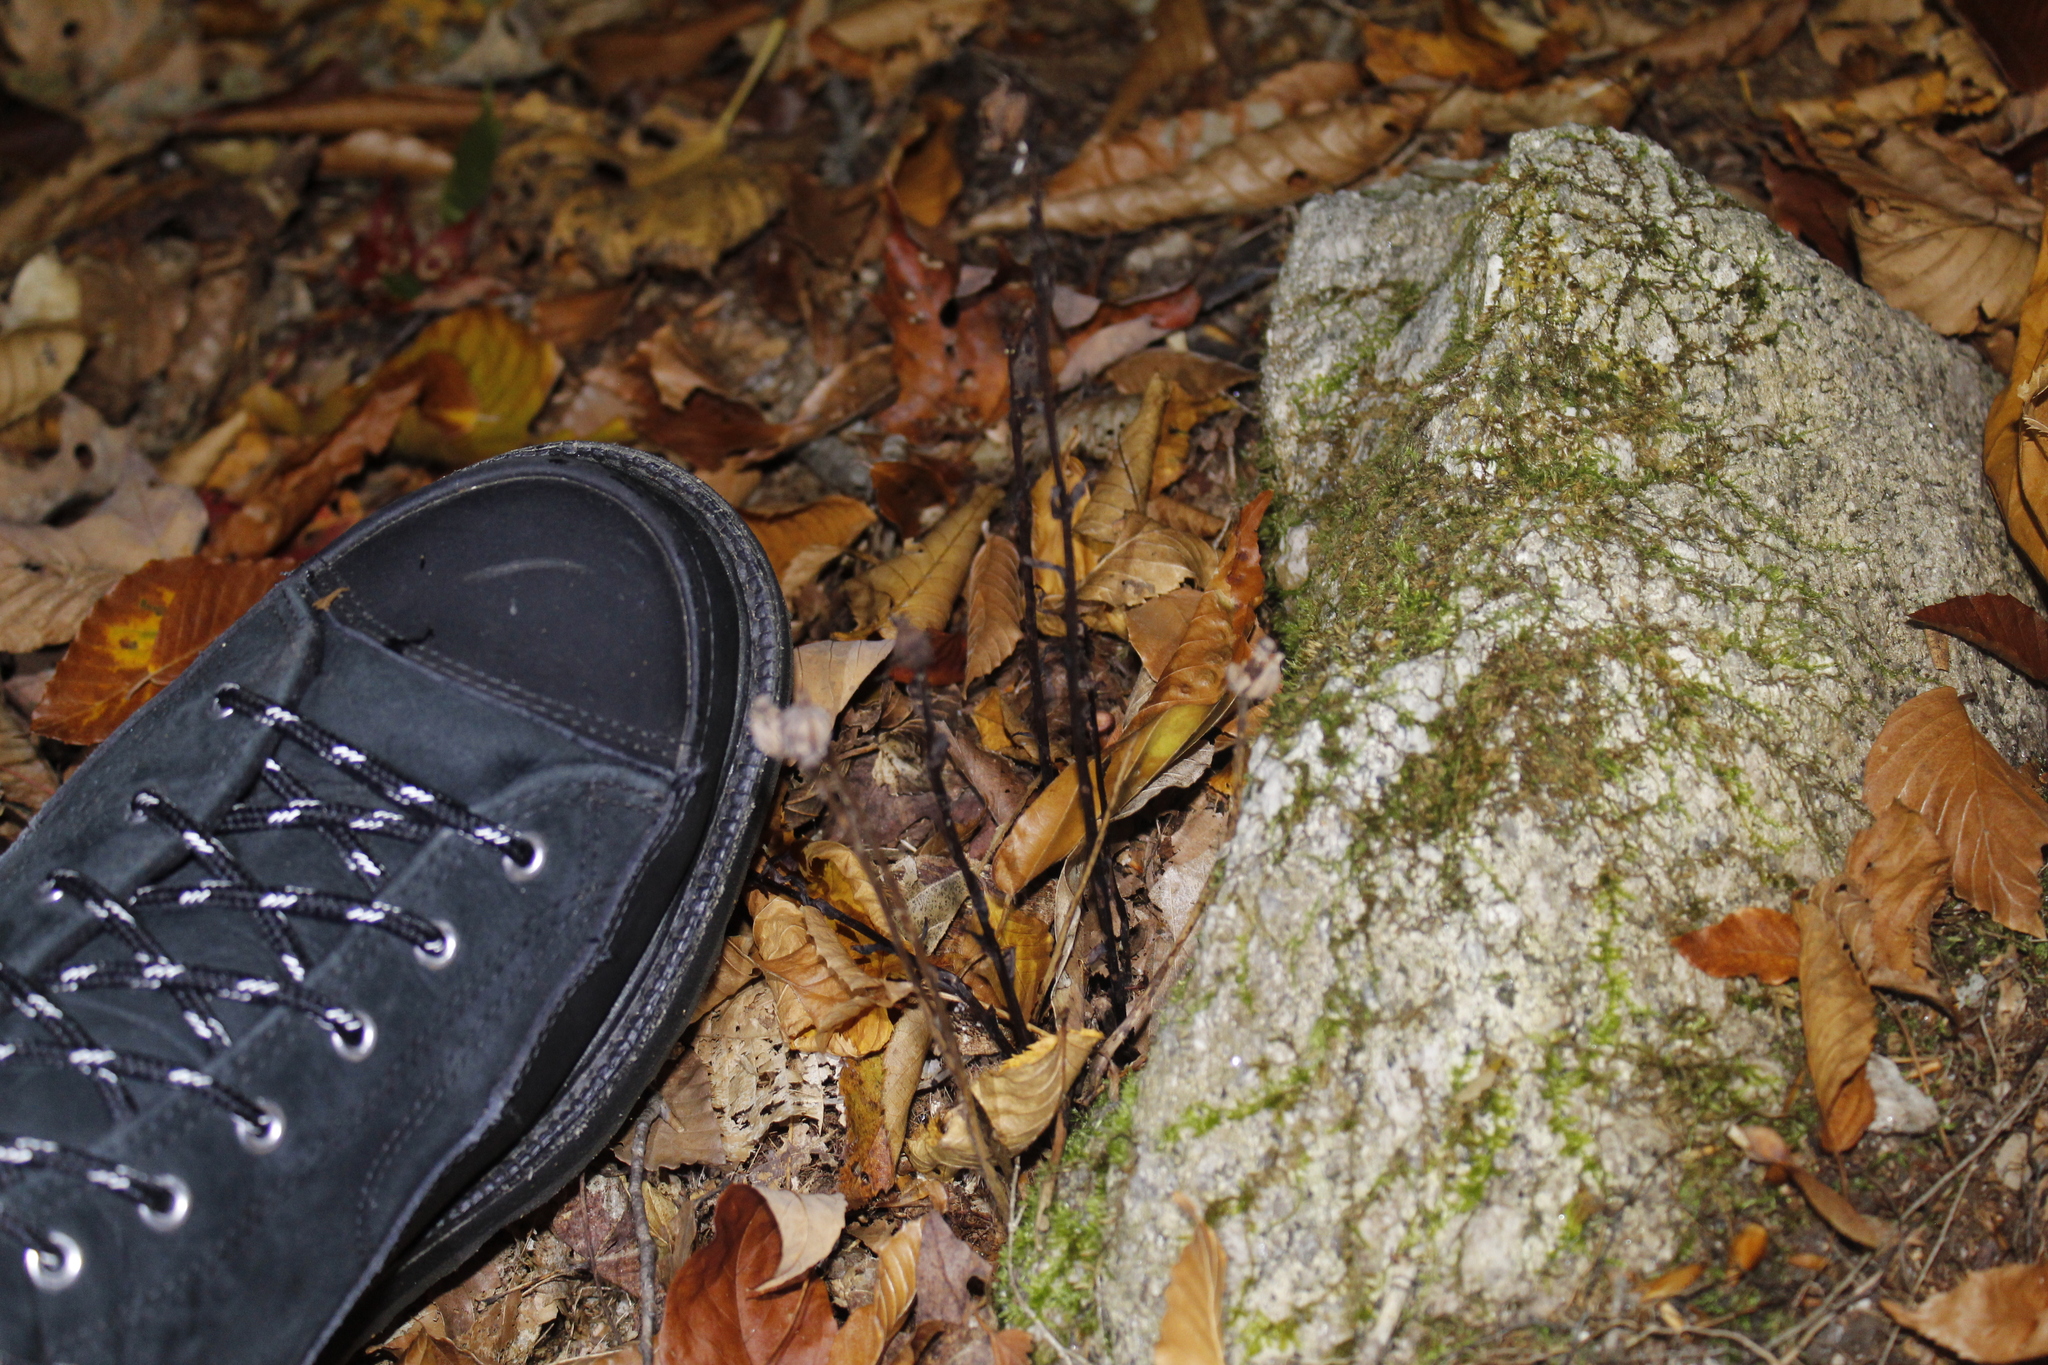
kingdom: Plantae
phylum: Tracheophyta
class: Magnoliopsida
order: Ericales
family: Ericaceae
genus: Monotropa
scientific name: Monotropa uniflora
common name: Convulsion root
